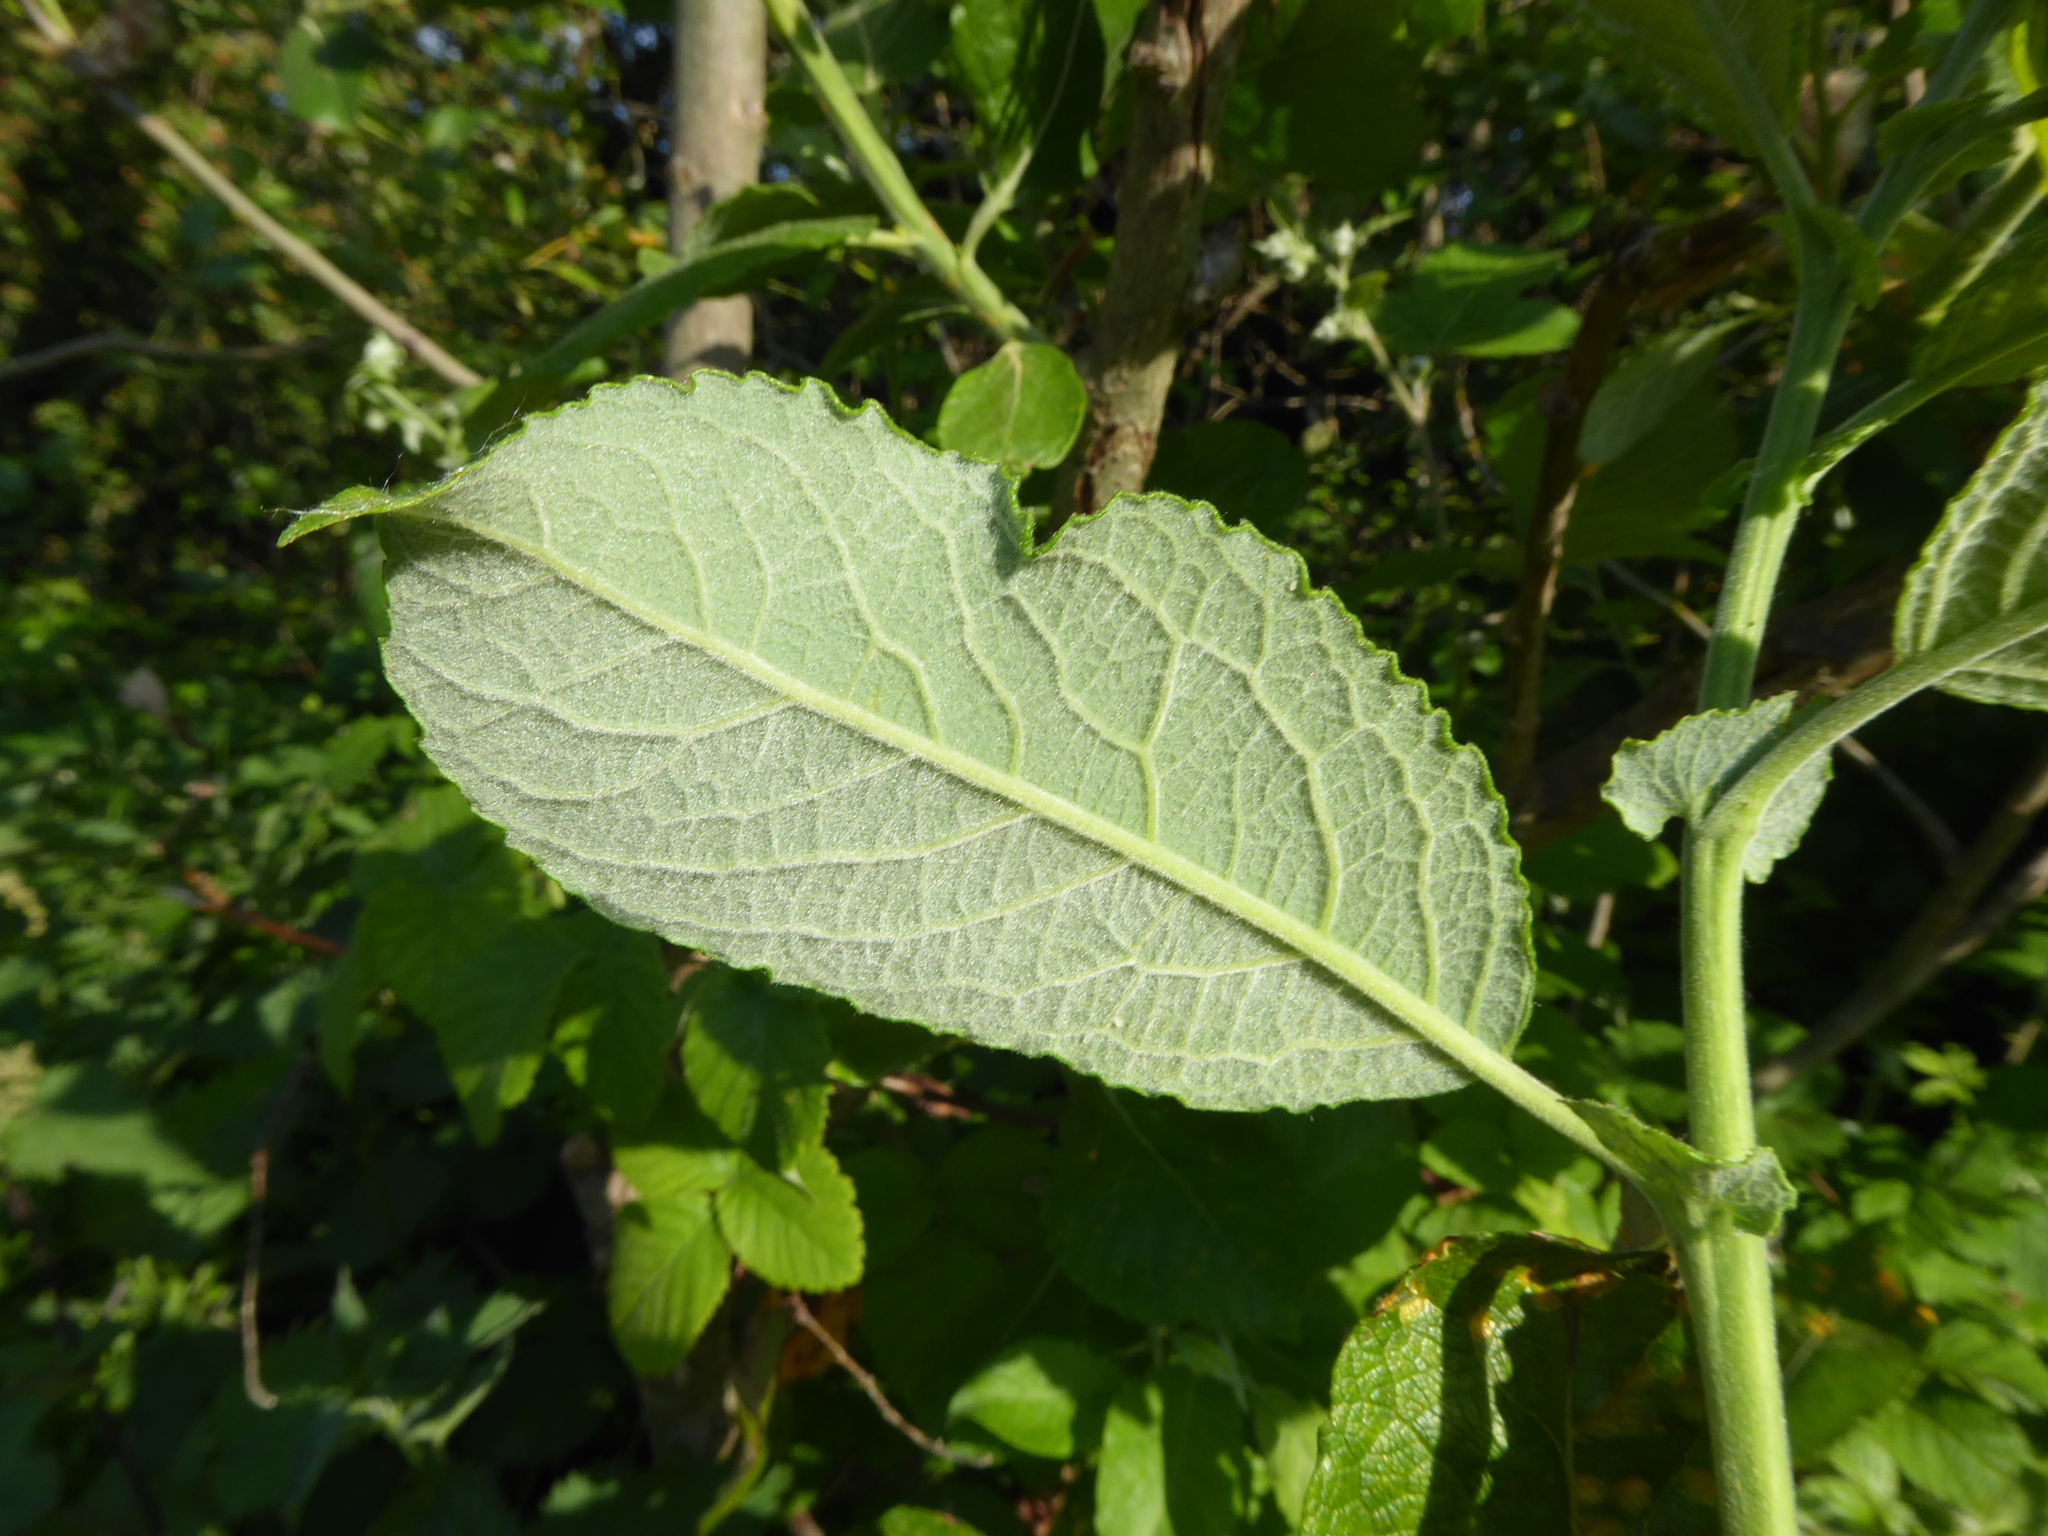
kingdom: Plantae
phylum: Tracheophyta
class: Magnoliopsida
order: Malpighiales
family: Salicaceae
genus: Salix
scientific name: Salix caprea
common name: Goat willow
